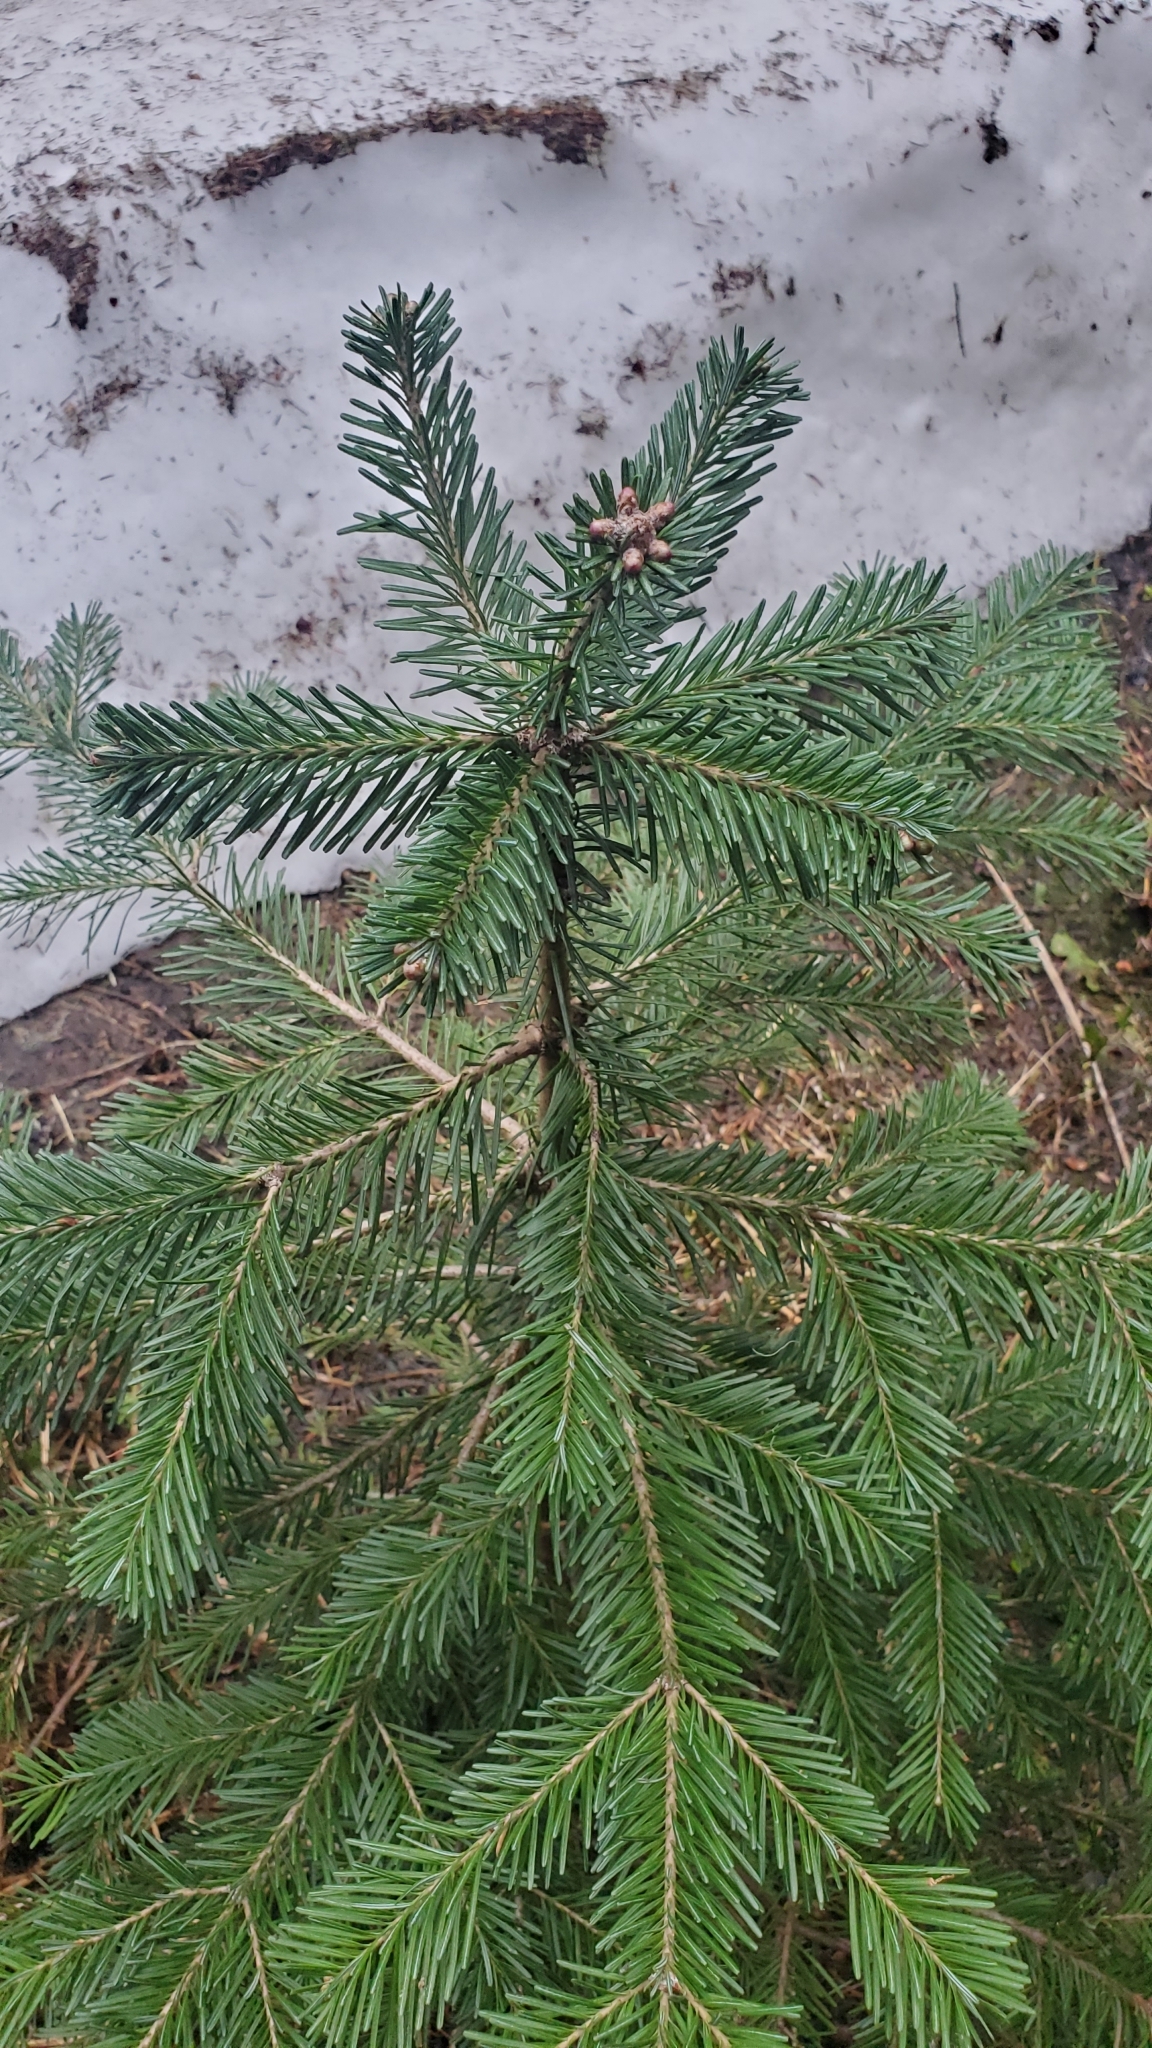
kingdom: Plantae
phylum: Tracheophyta
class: Pinopsida
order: Pinales
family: Pinaceae
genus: Abies
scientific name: Abies lasiocarpa
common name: Subalpine fir
